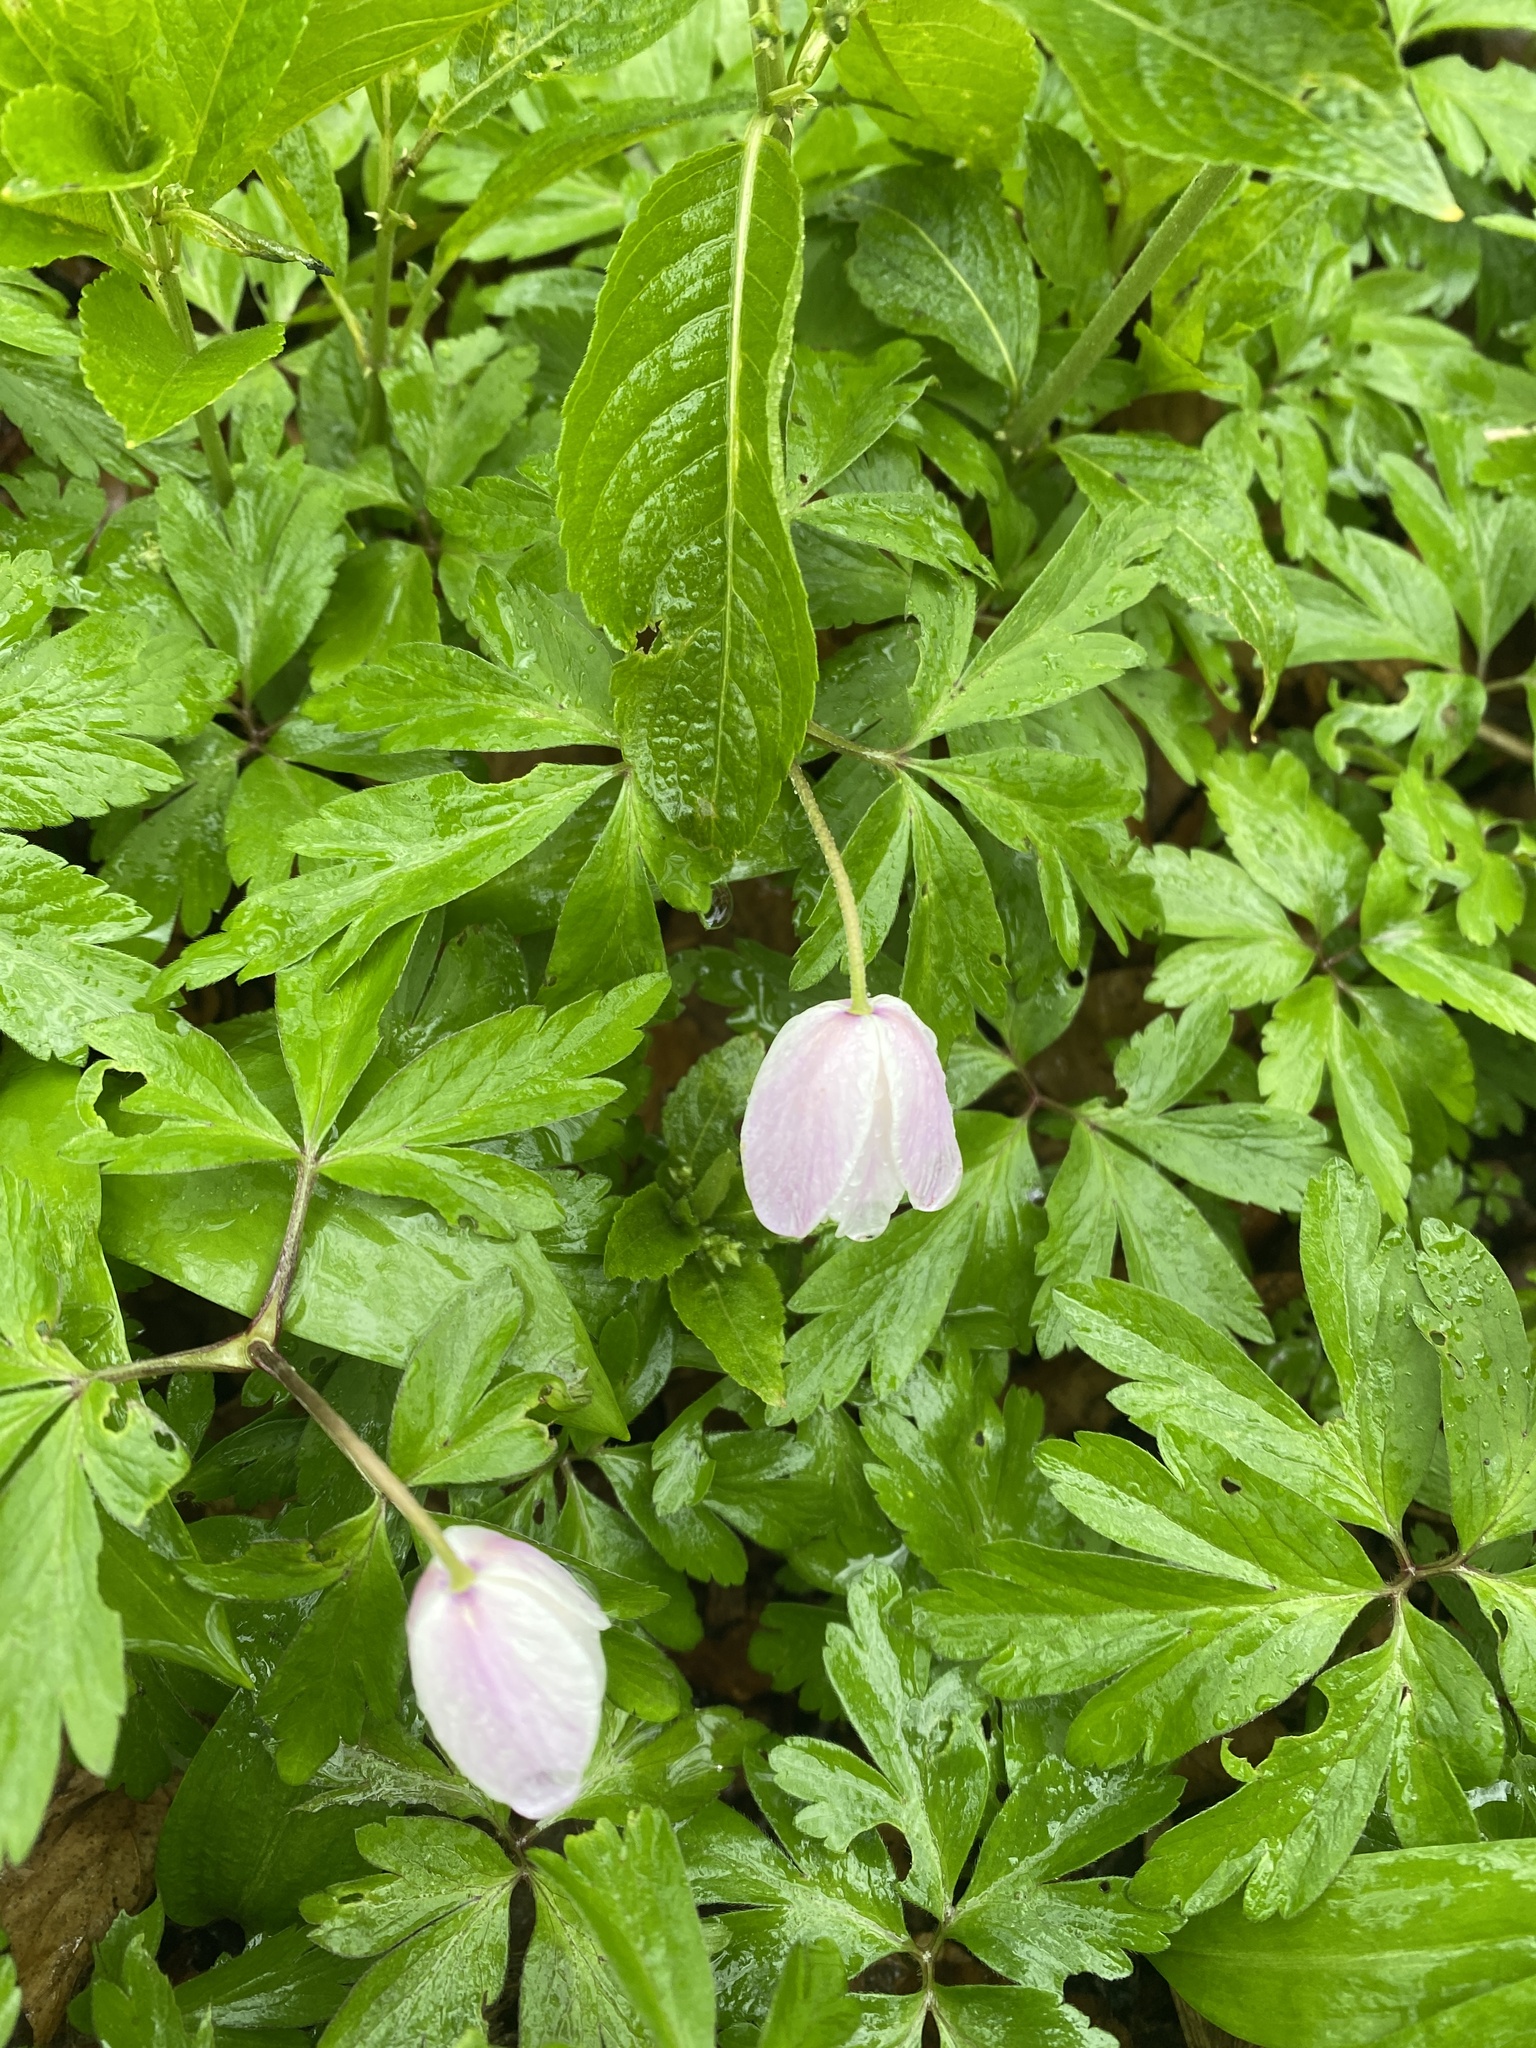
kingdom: Plantae
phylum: Tracheophyta
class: Magnoliopsida
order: Ranunculales
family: Ranunculaceae
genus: Anemone
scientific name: Anemone nemorosa
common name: Wood anemone
